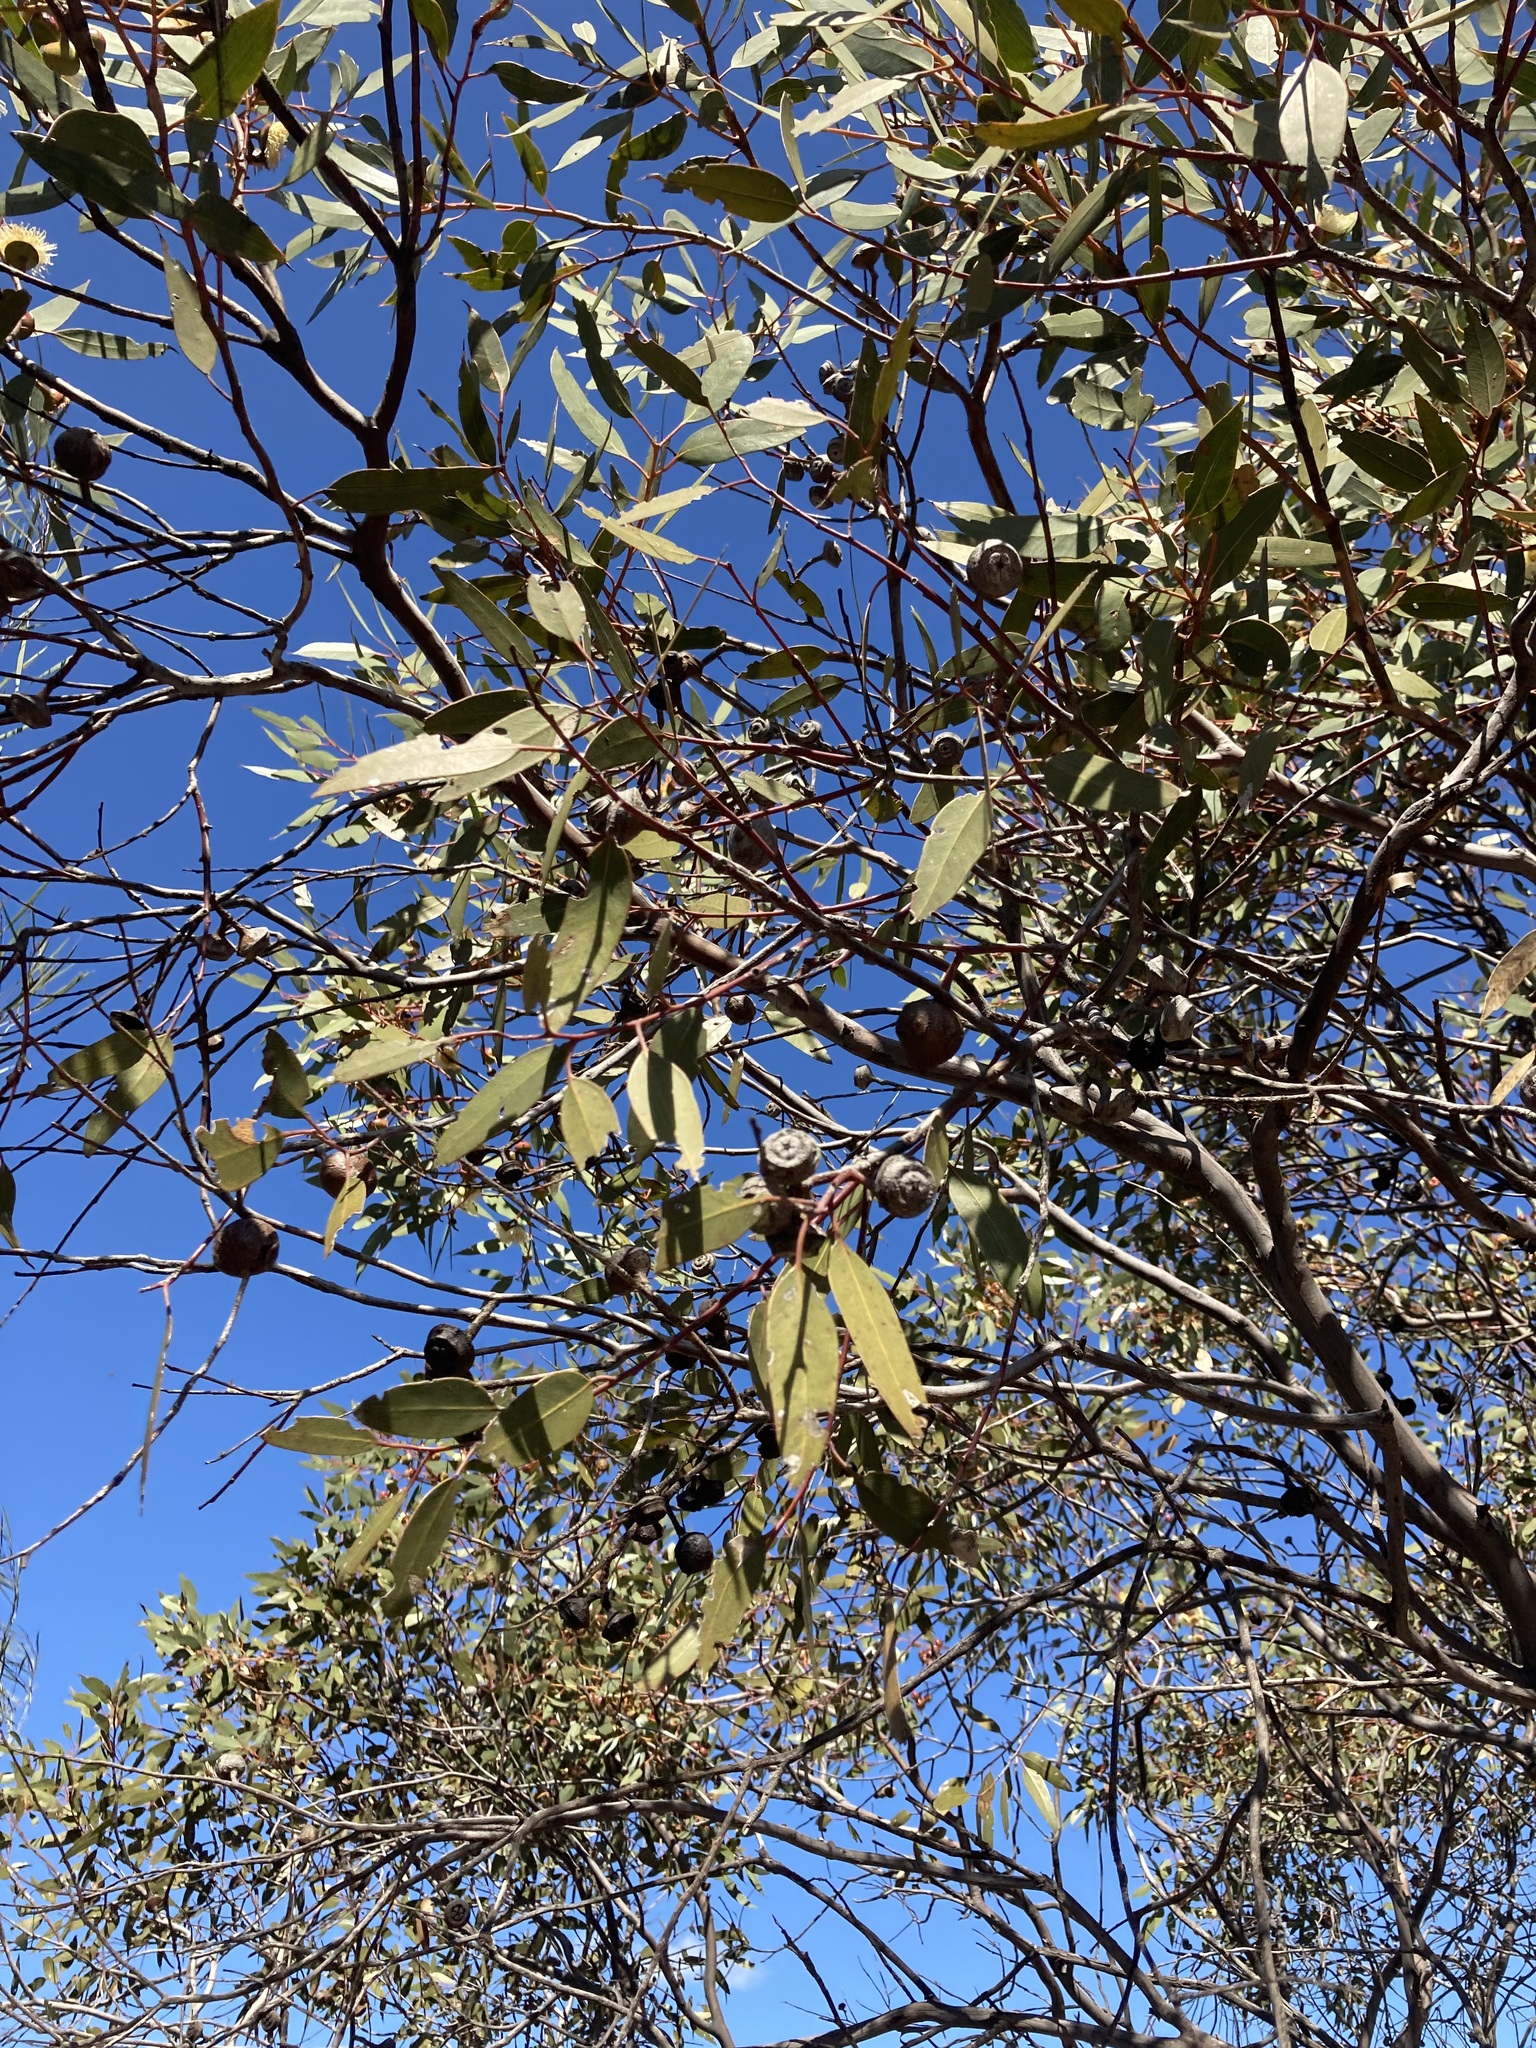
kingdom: Plantae
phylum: Tracheophyta
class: Magnoliopsida
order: Myrtales
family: Myrtaceae
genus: Eucalyptus
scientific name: Eucalyptus burracoppinensis
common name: Burracoppin mallee
